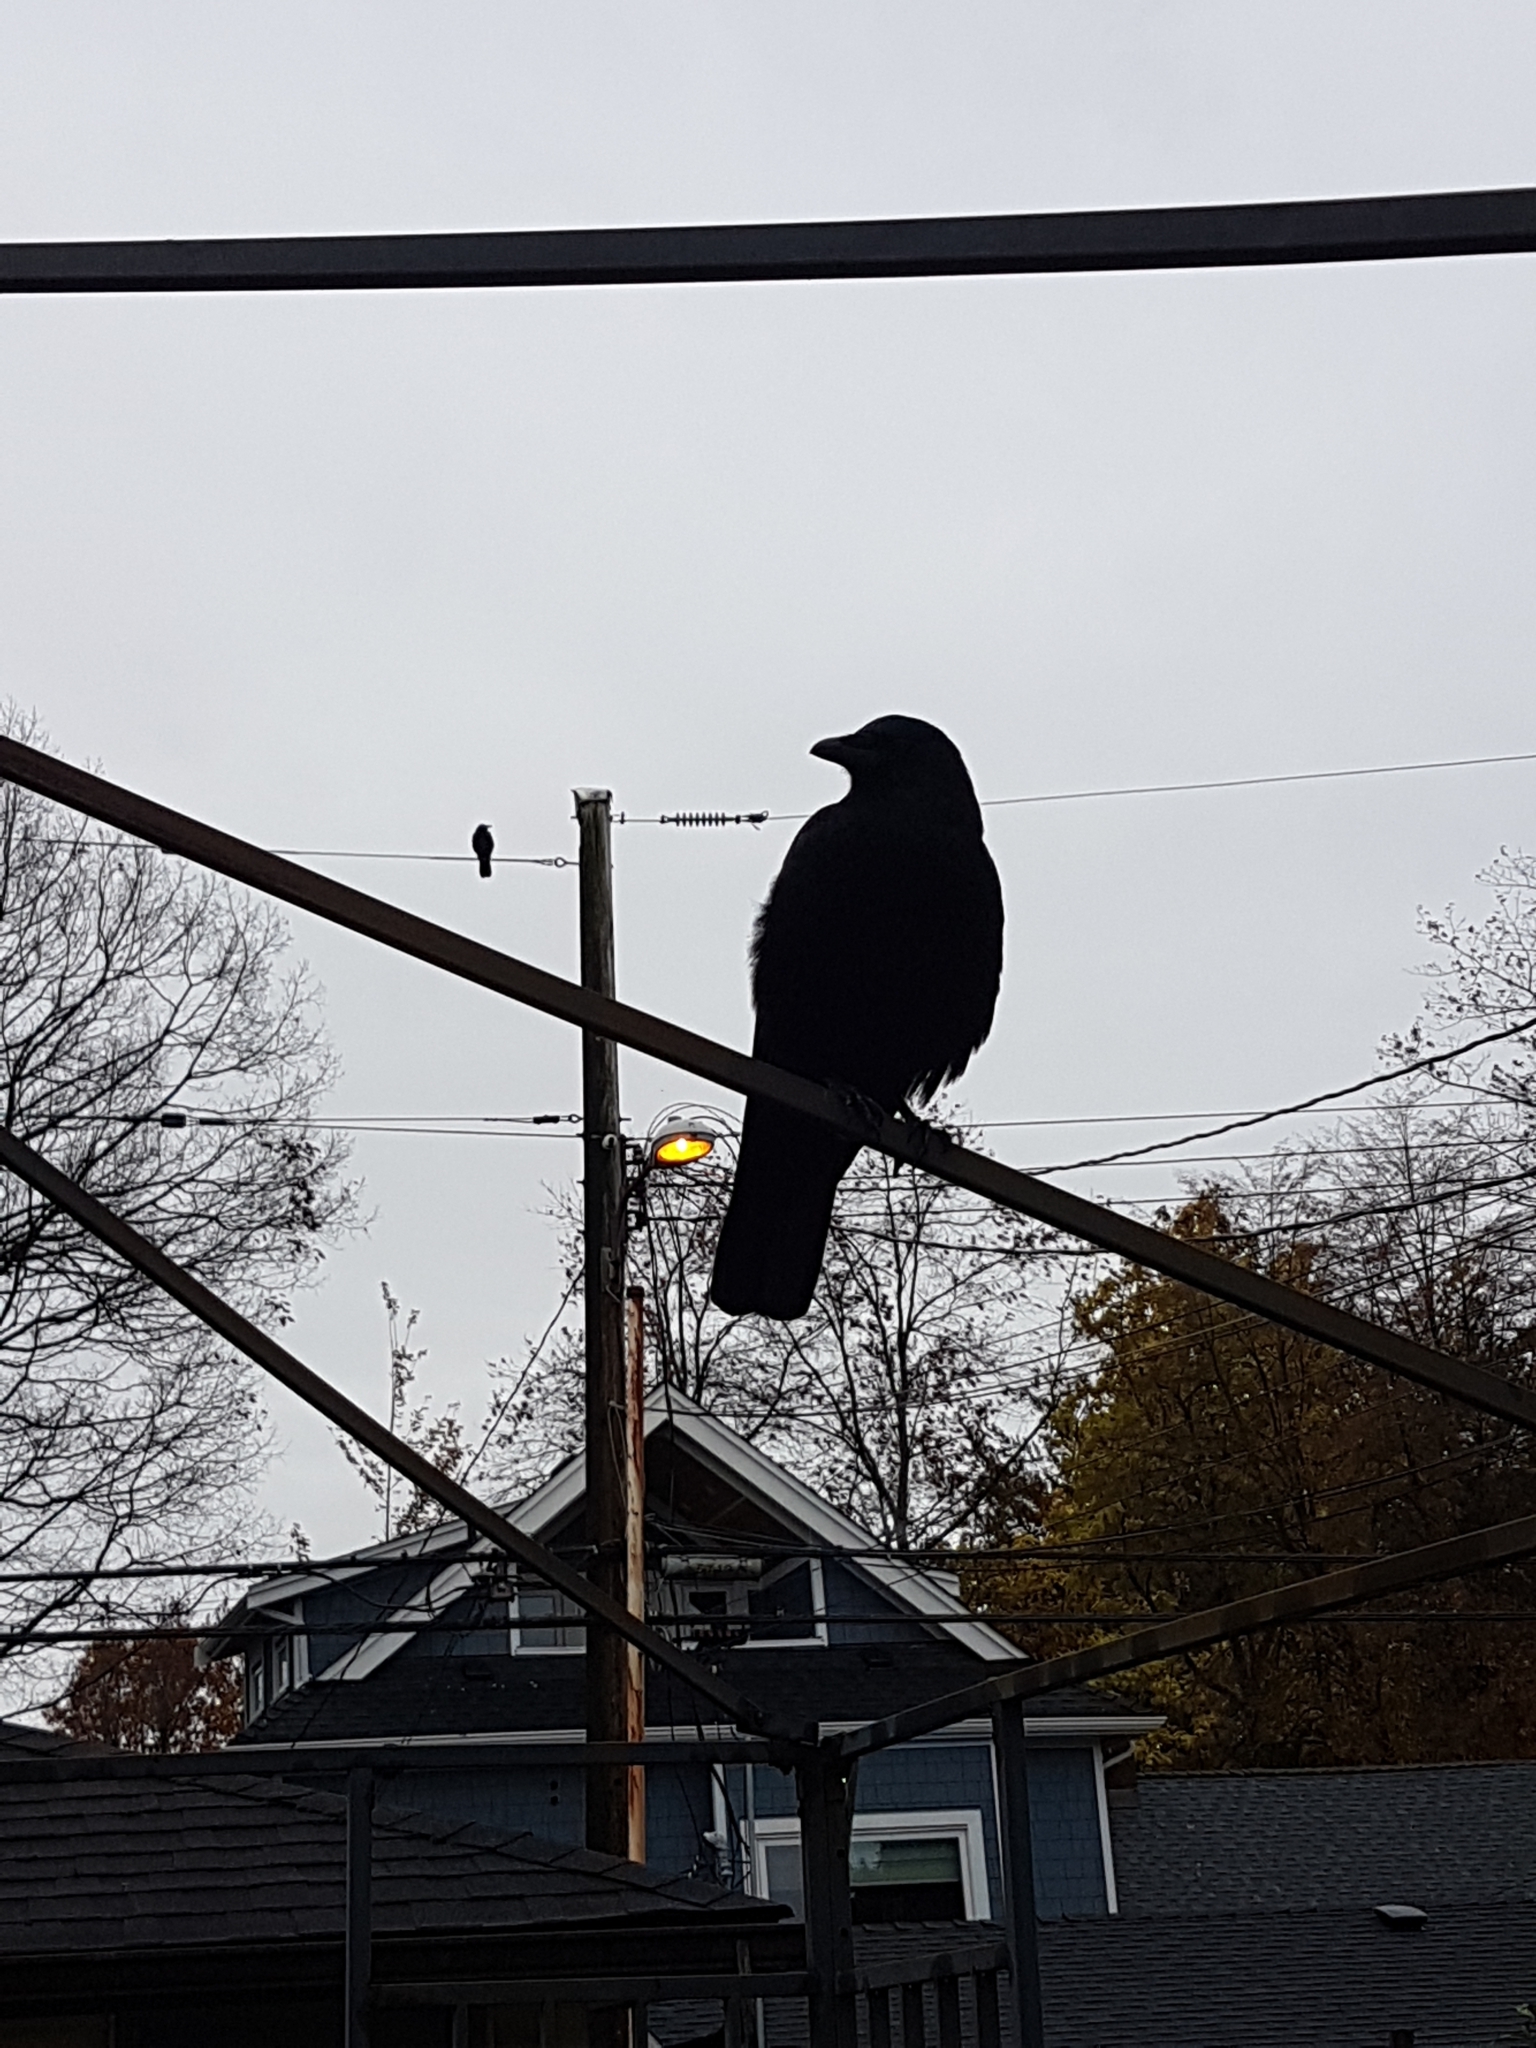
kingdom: Animalia
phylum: Chordata
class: Aves
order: Passeriformes
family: Corvidae
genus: Corvus
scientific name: Corvus brachyrhynchos
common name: American crow
